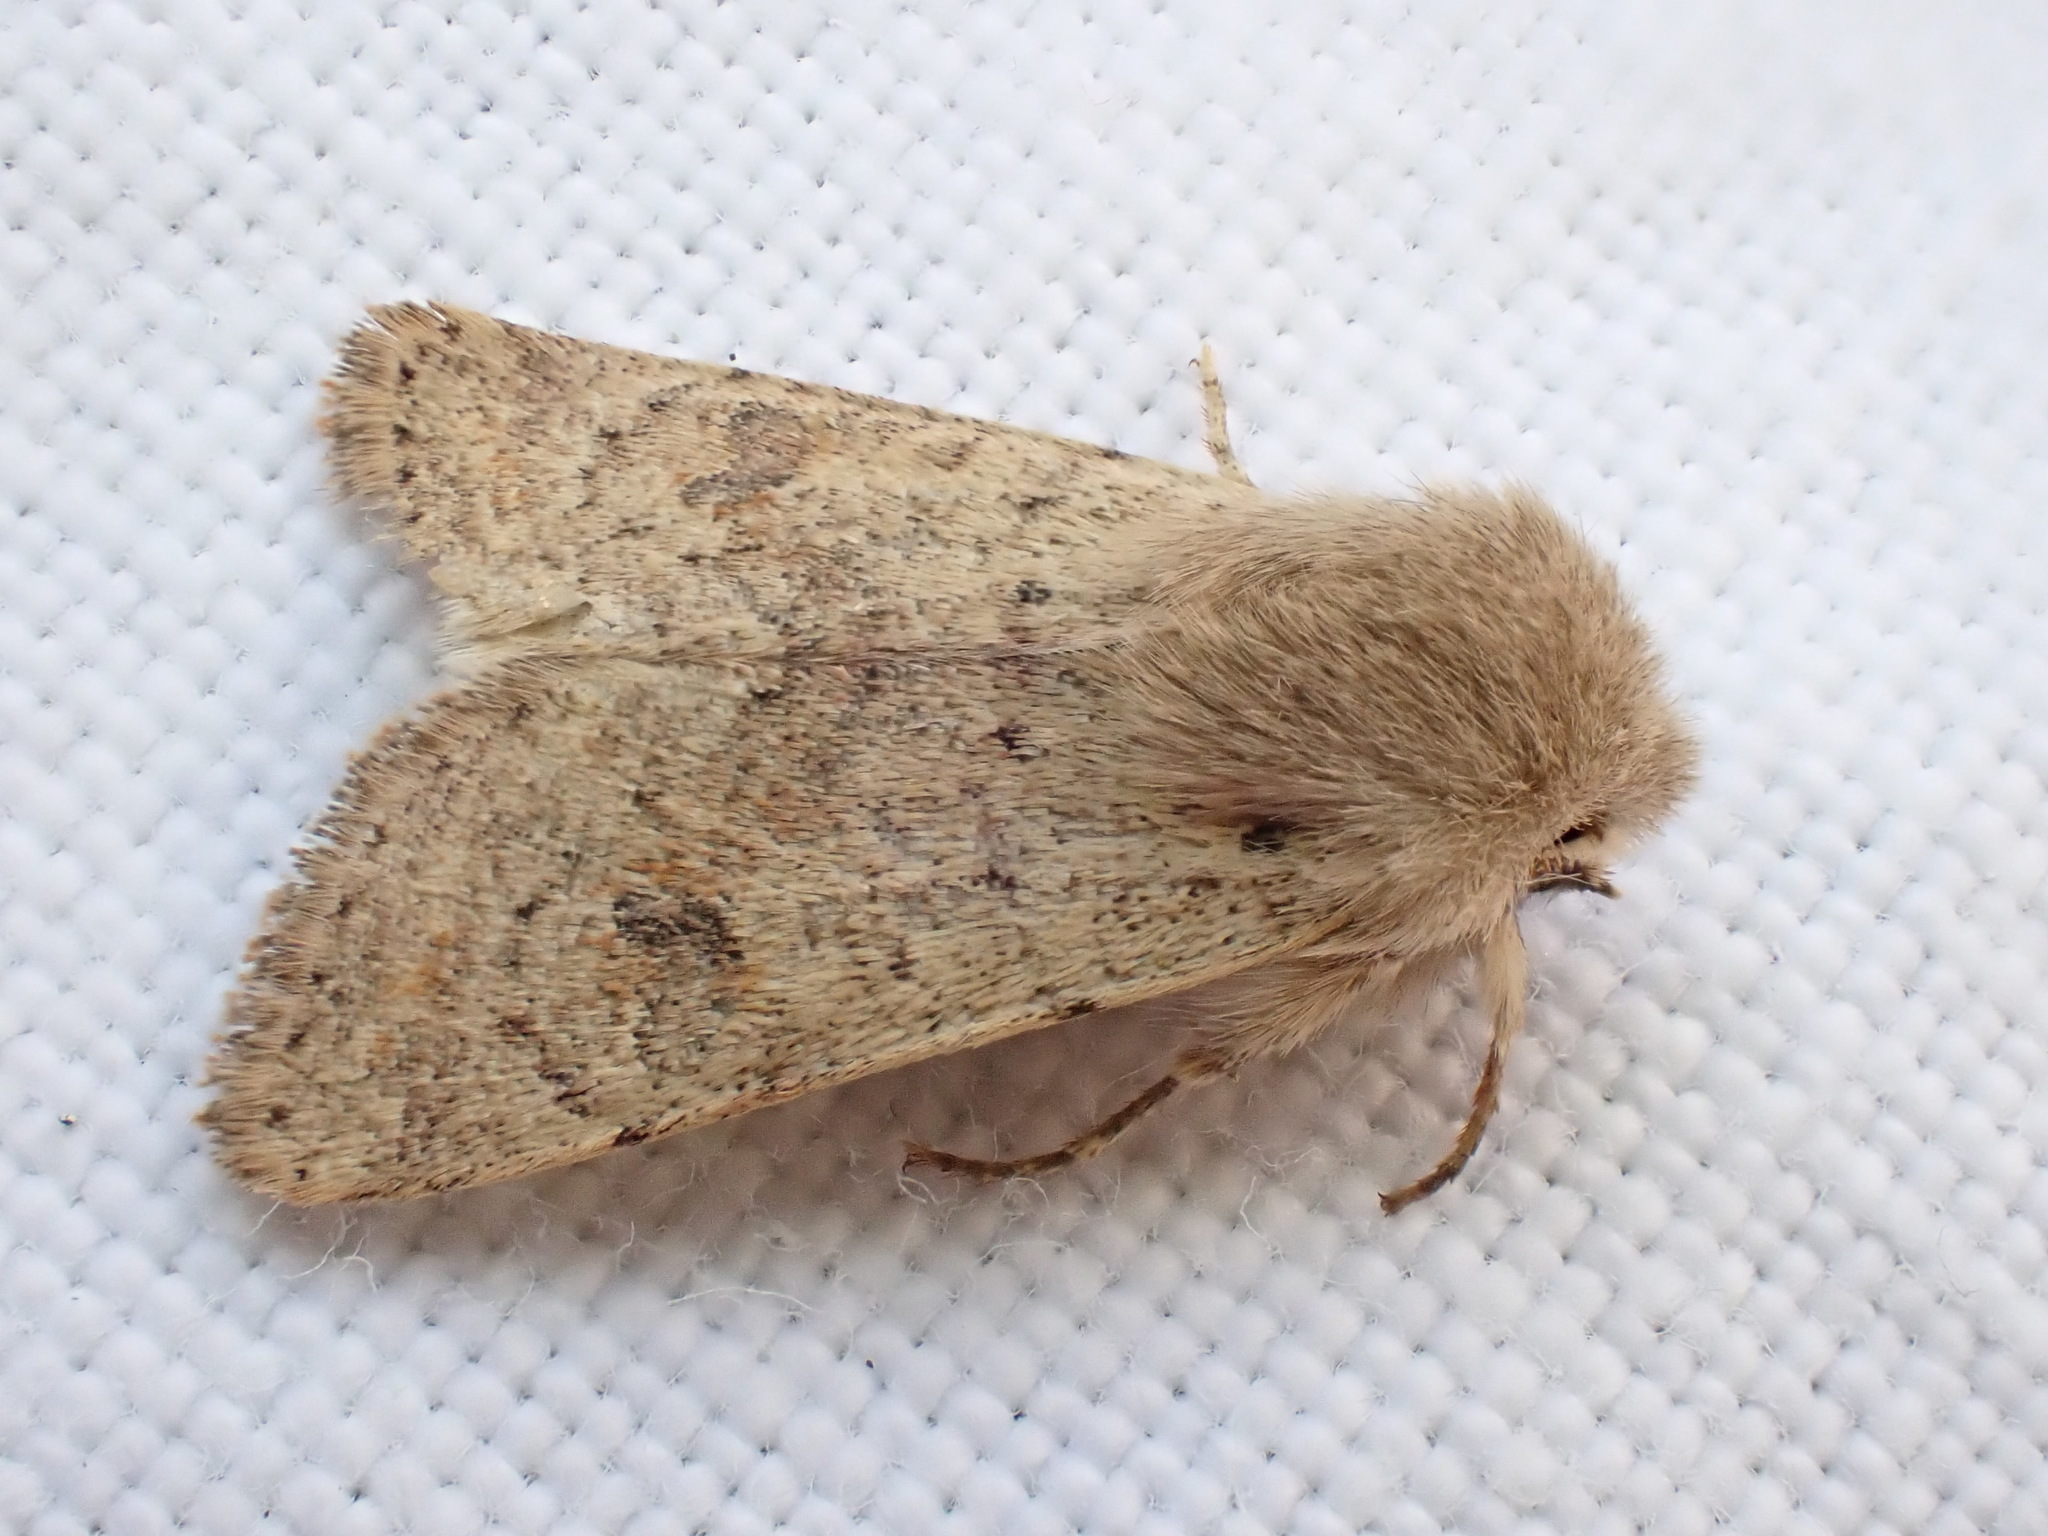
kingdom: Animalia
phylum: Arthropoda
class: Insecta
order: Lepidoptera
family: Noctuidae
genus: Orthosia
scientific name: Orthosia cruda
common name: Small quaker
